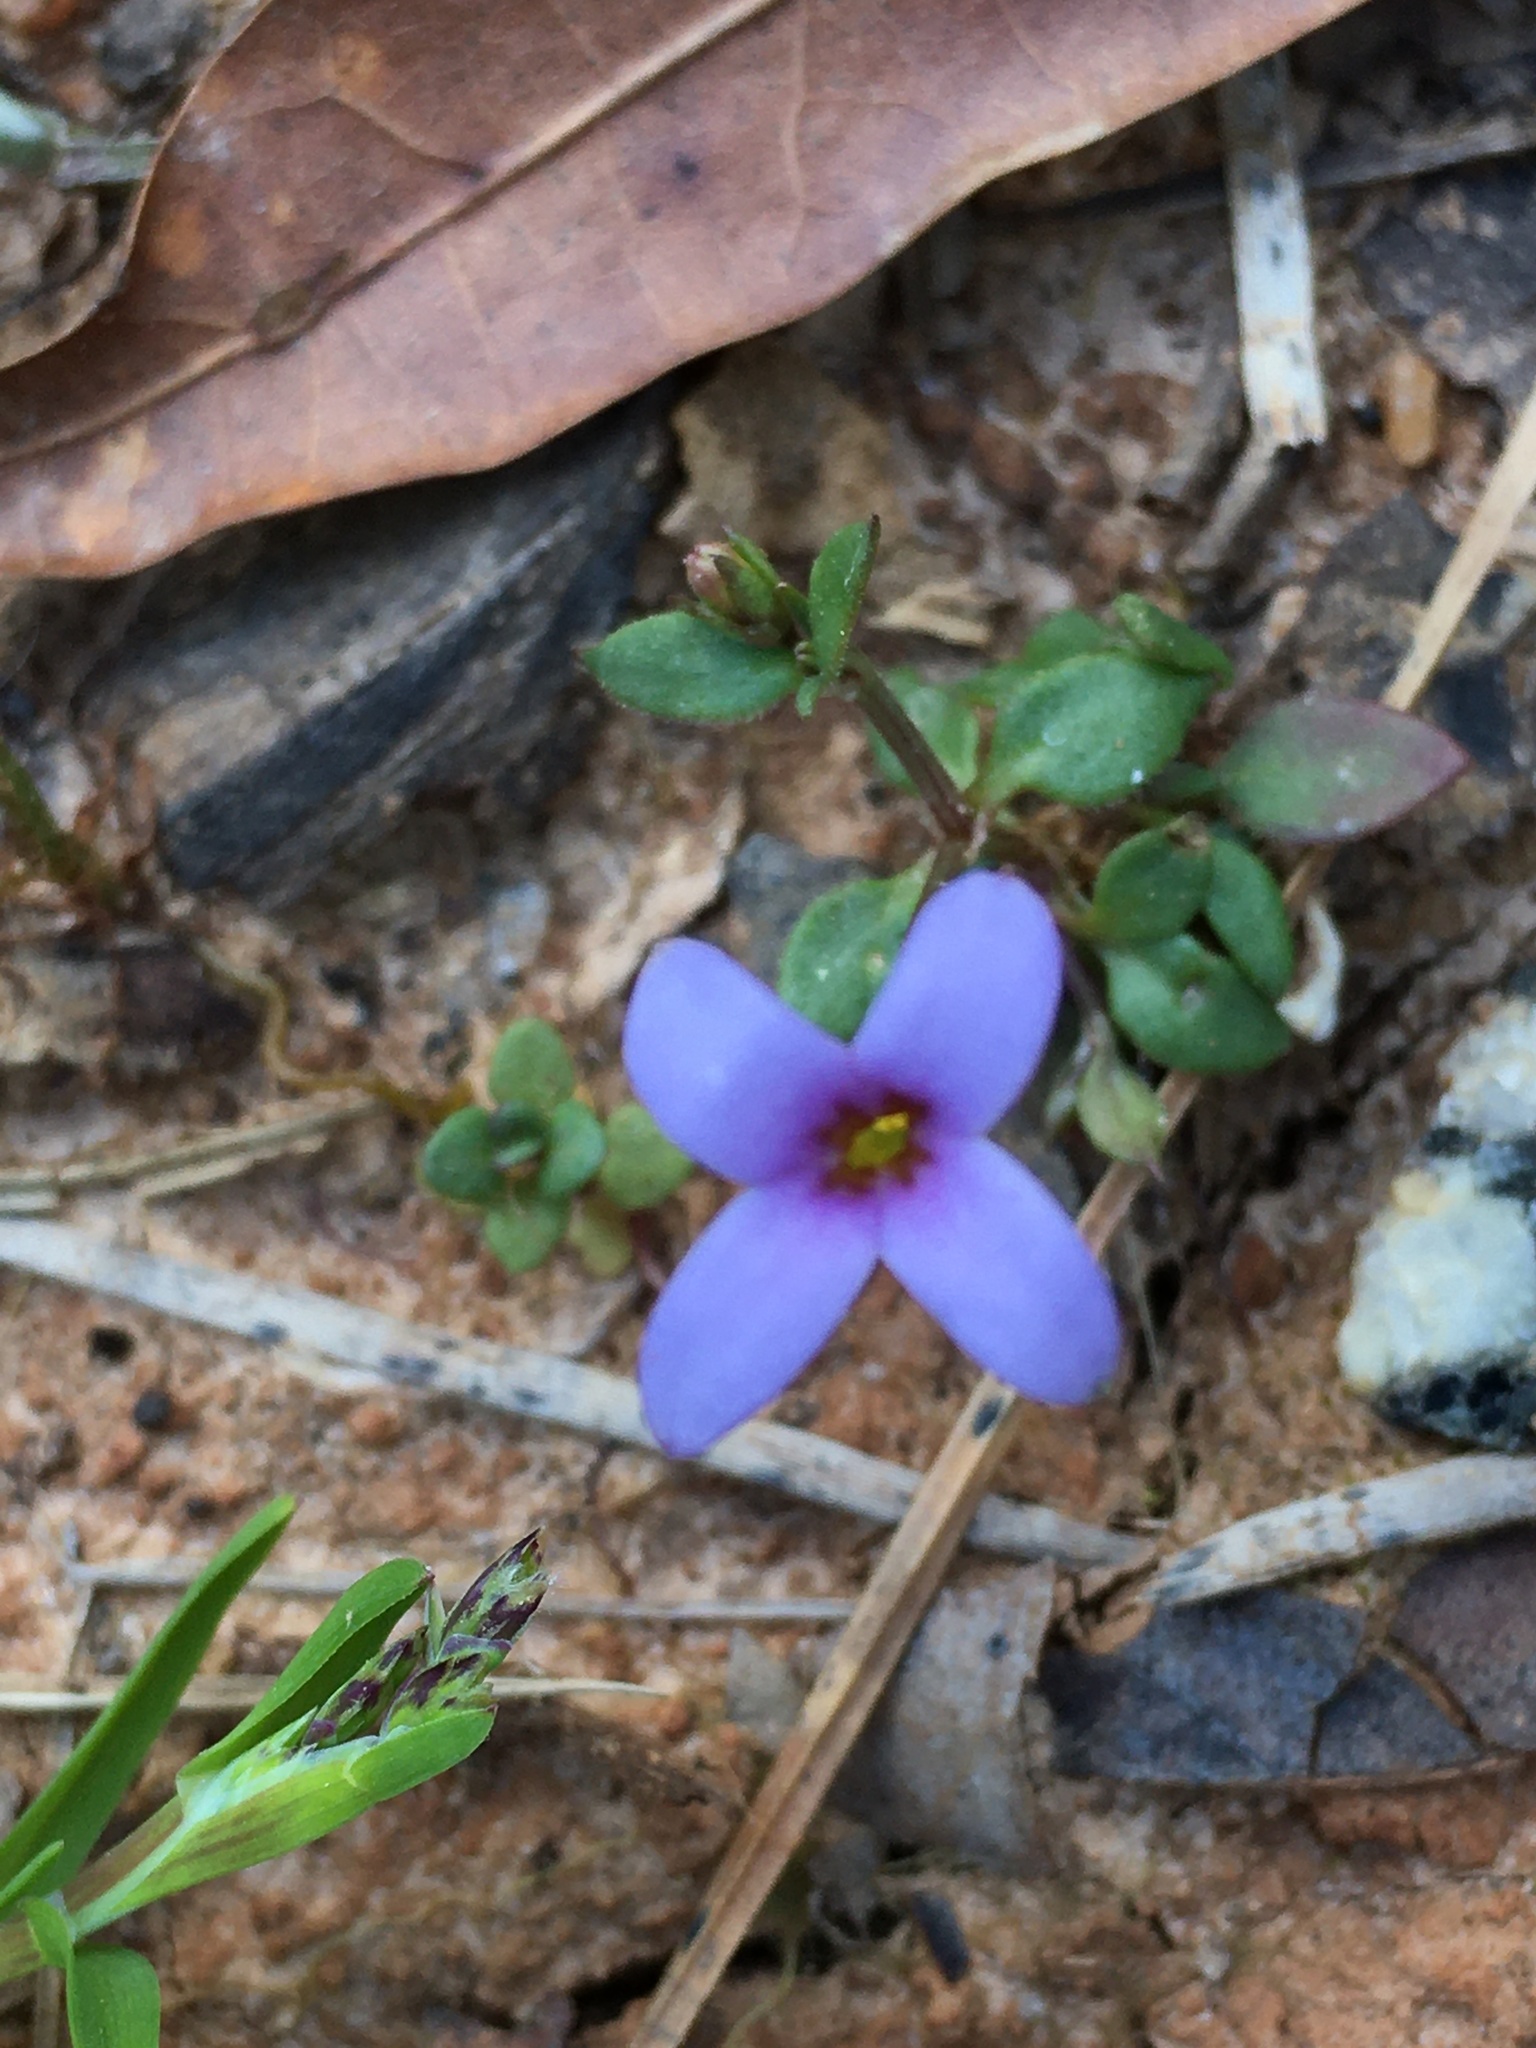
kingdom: Plantae
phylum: Tracheophyta
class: Magnoliopsida
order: Gentianales
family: Rubiaceae
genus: Houstonia
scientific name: Houstonia pusilla
